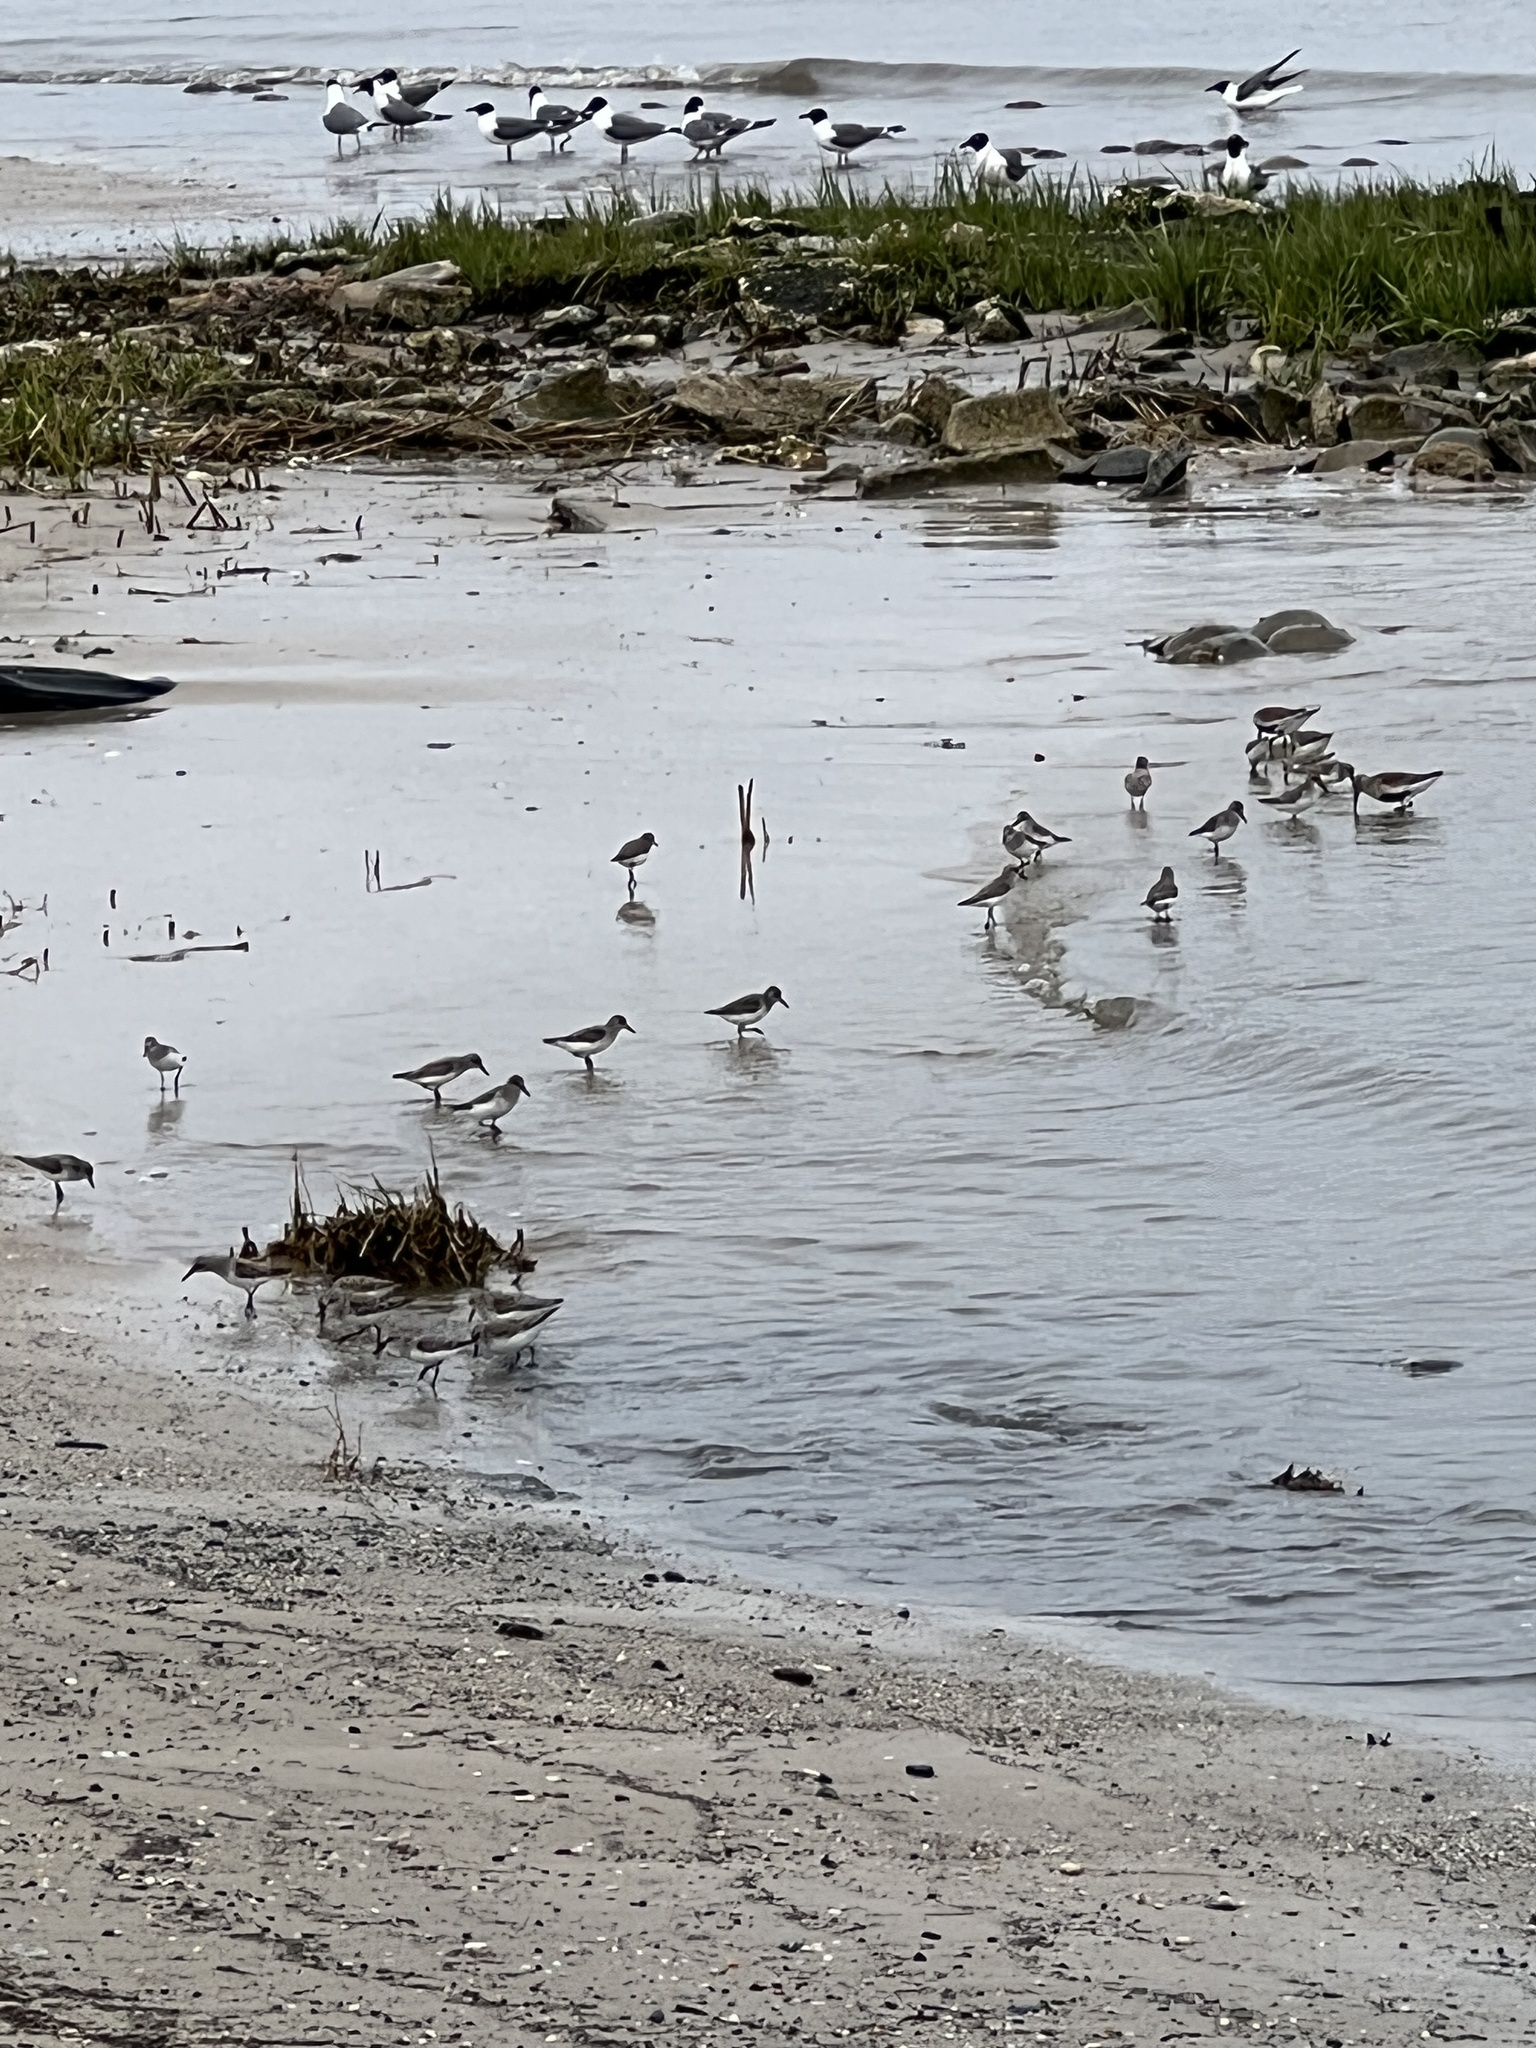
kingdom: Animalia
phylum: Chordata
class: Aves
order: Charadriiformes
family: Scolopacidae
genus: Calidris
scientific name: Calidris alba
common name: Sanderling
